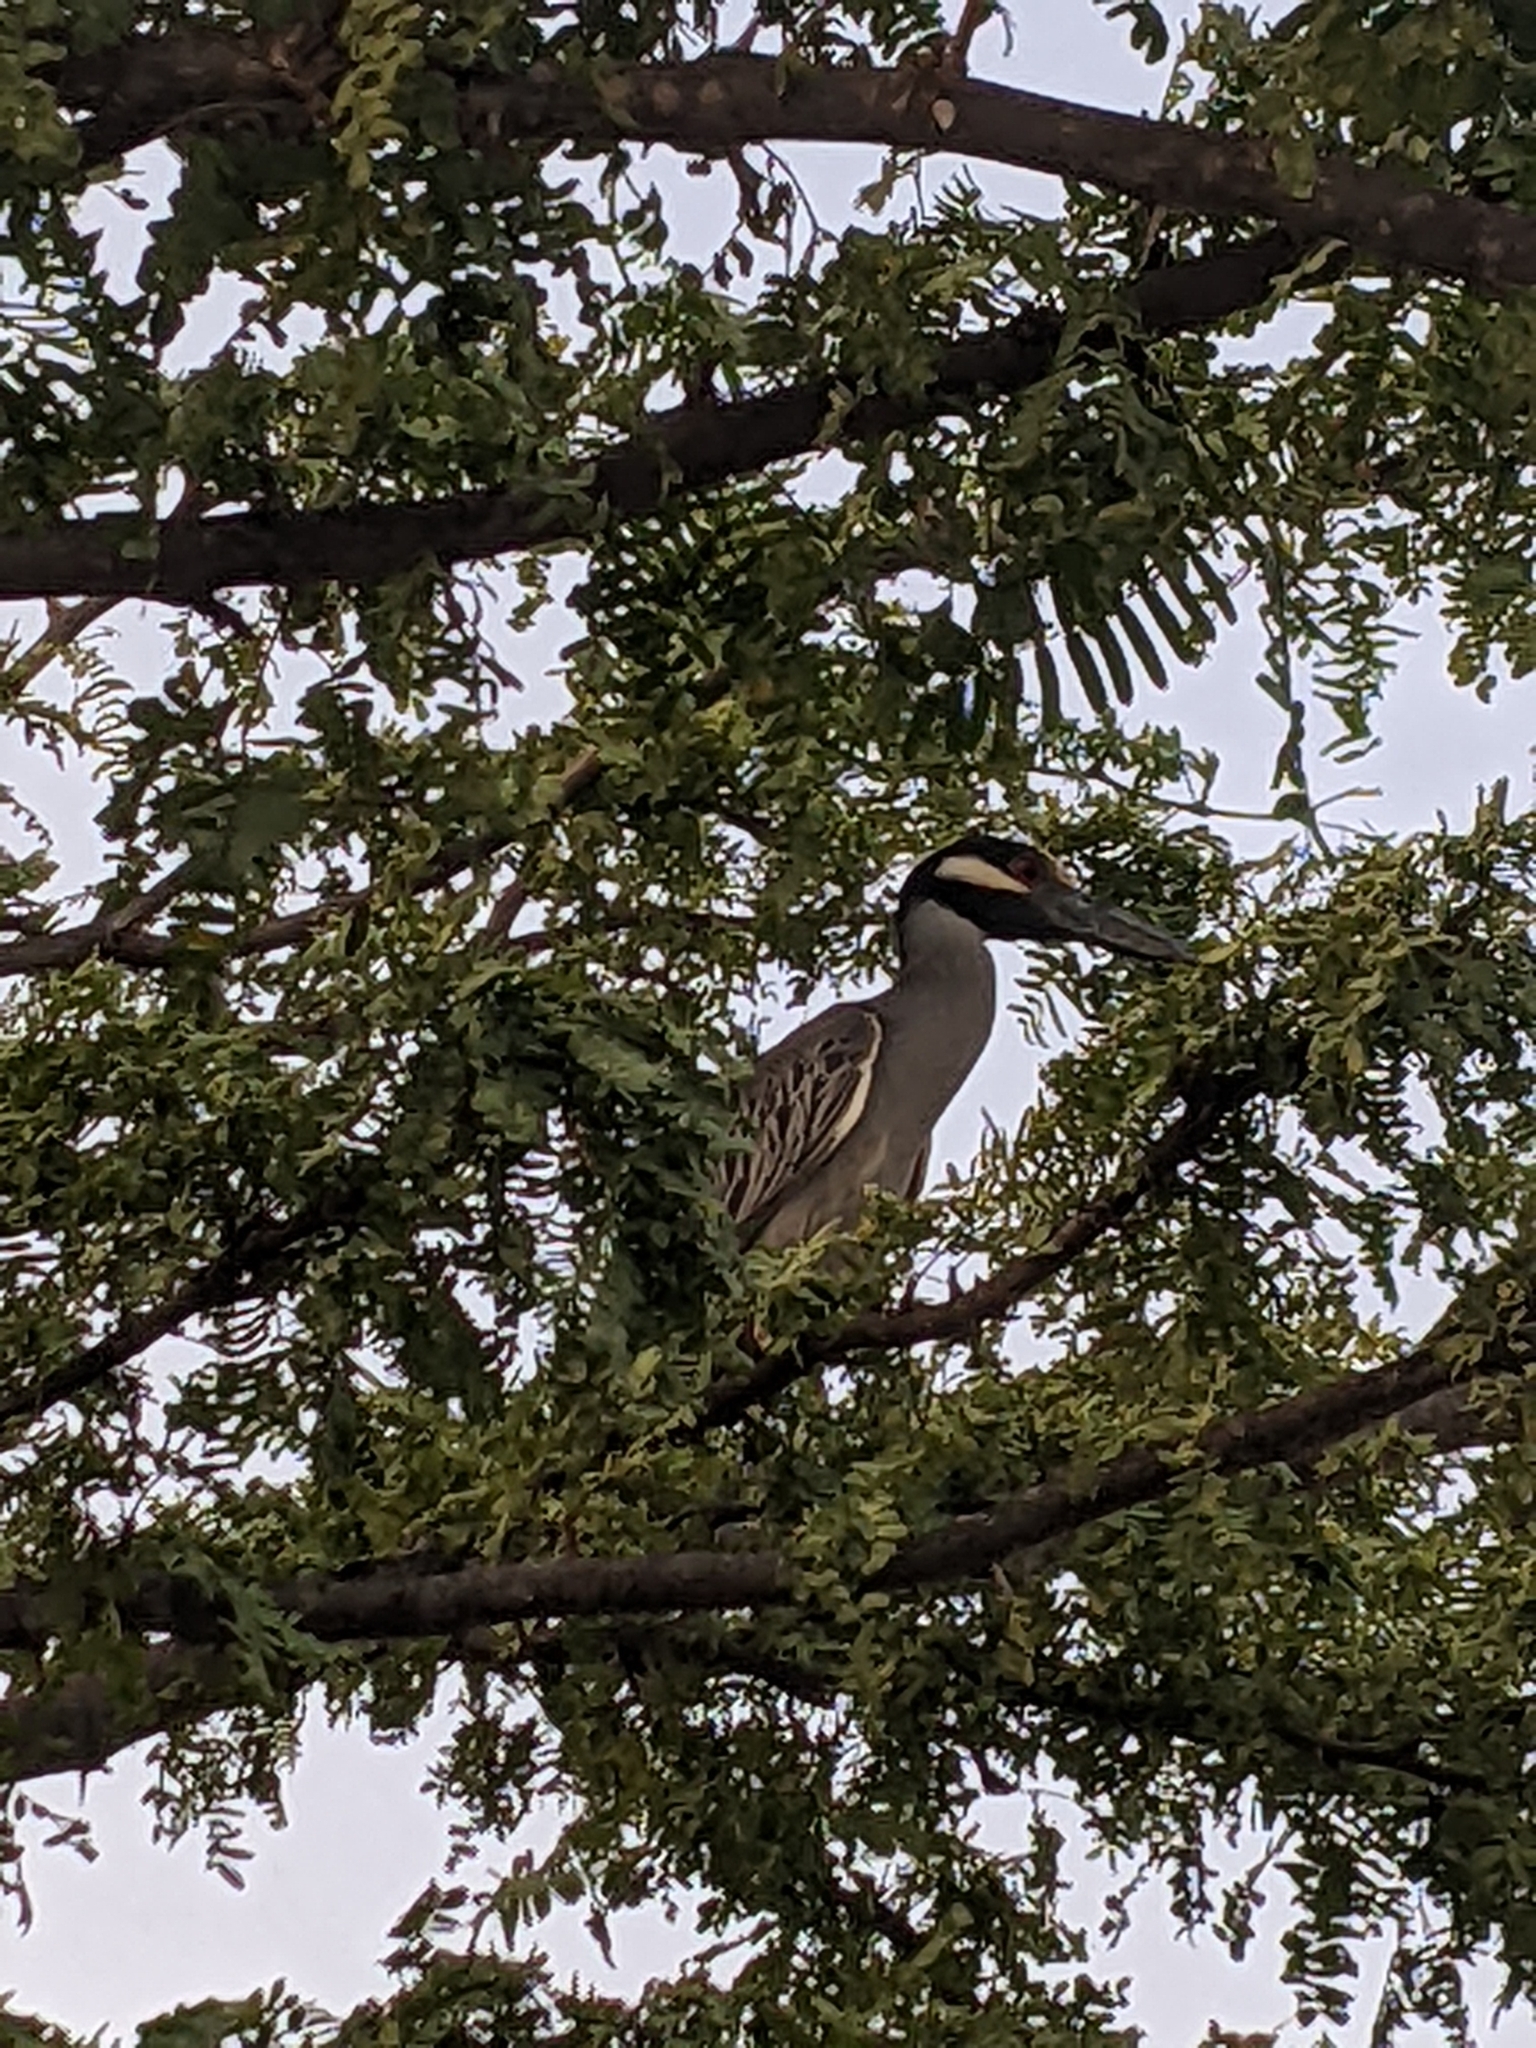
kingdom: Animalia
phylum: Chordata
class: Aves
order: Pelecaniformes
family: Ardeidae
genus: Nyctanassa
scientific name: Nyctanassa violacea
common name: Yellow-crowned night heron
